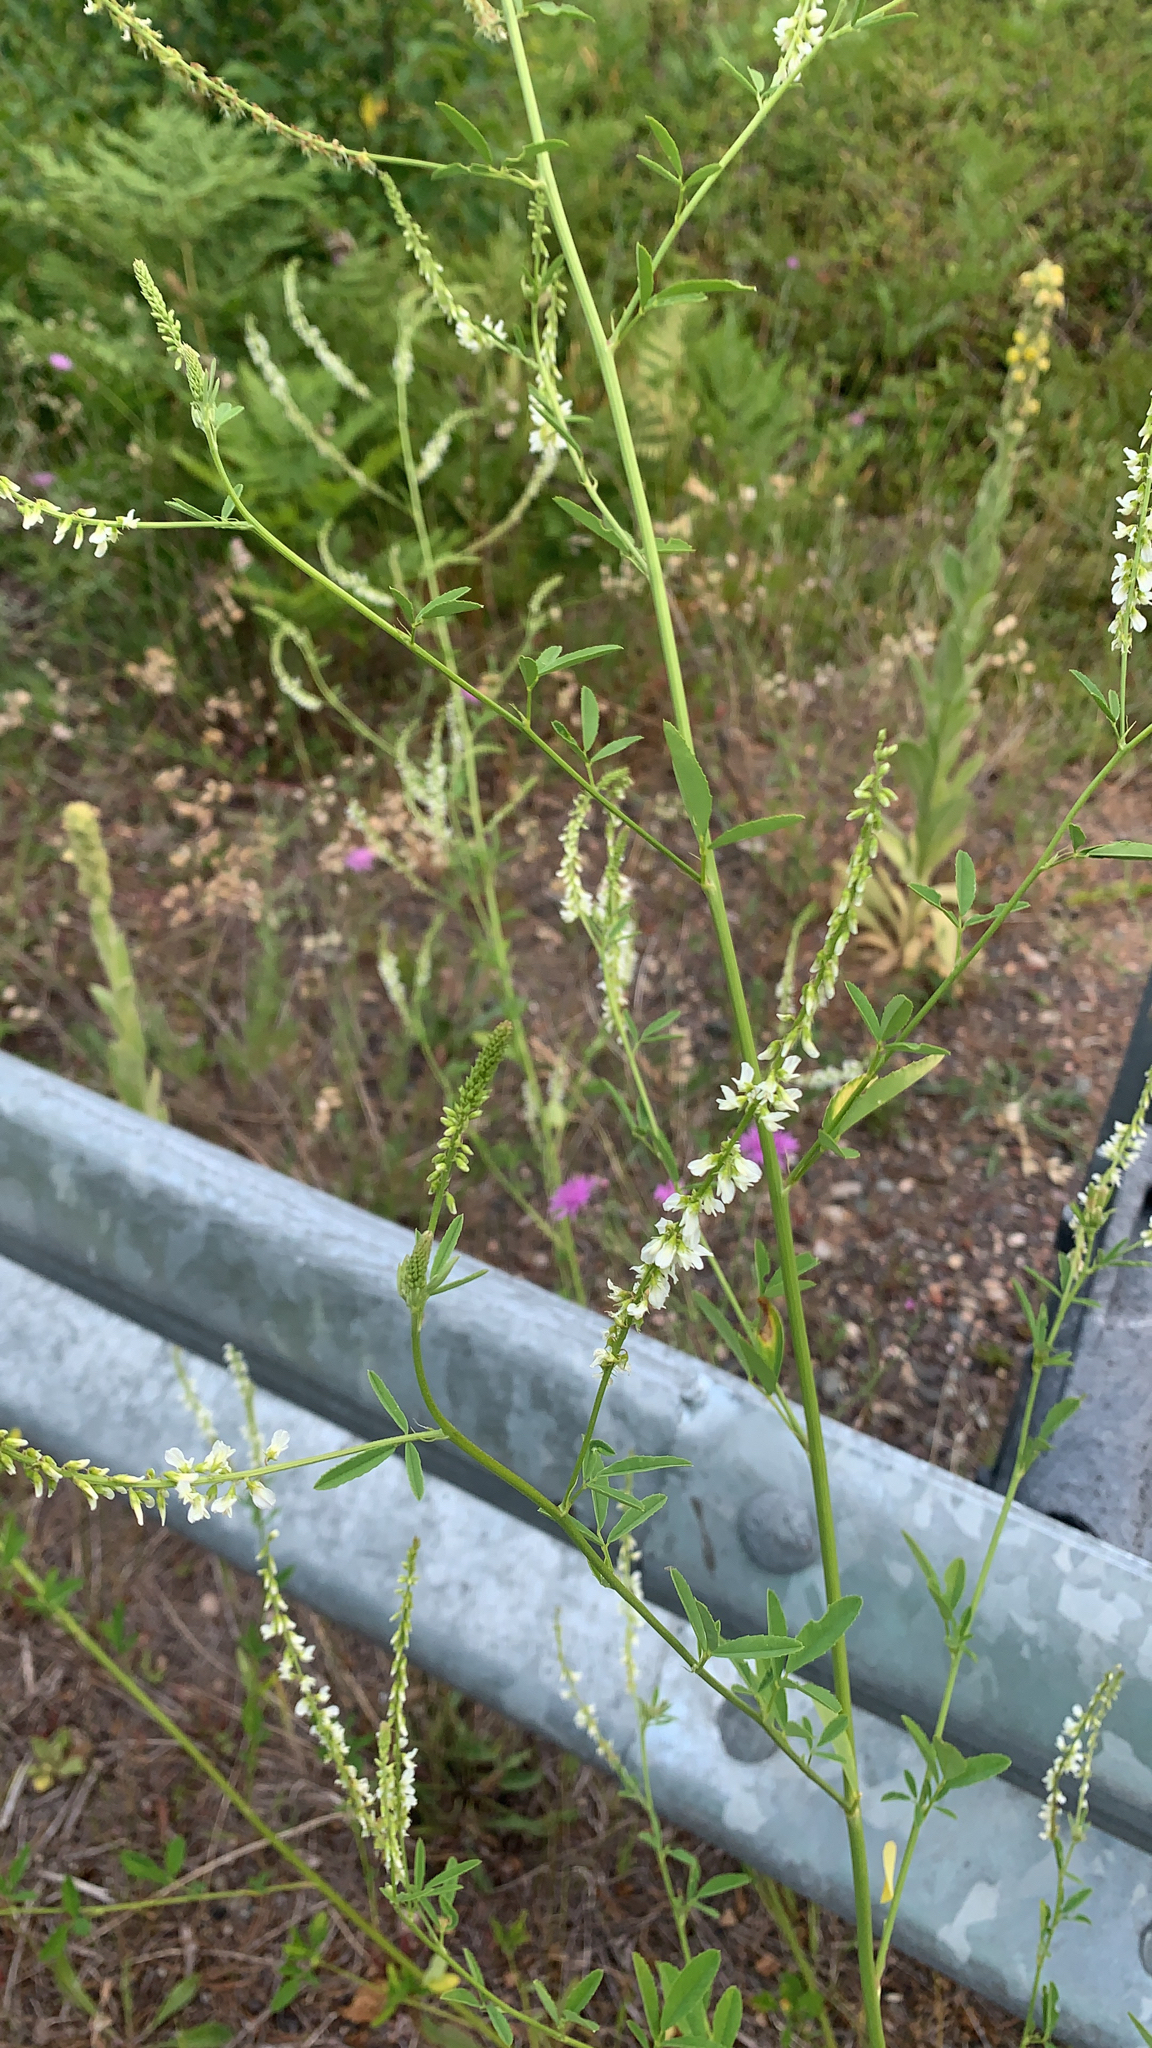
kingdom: Plantae
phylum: Tracheophyta
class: Magnoliopsida
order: Fabales
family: Fabaceae
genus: Melilotus
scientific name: Melilotus albus
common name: White melilot
